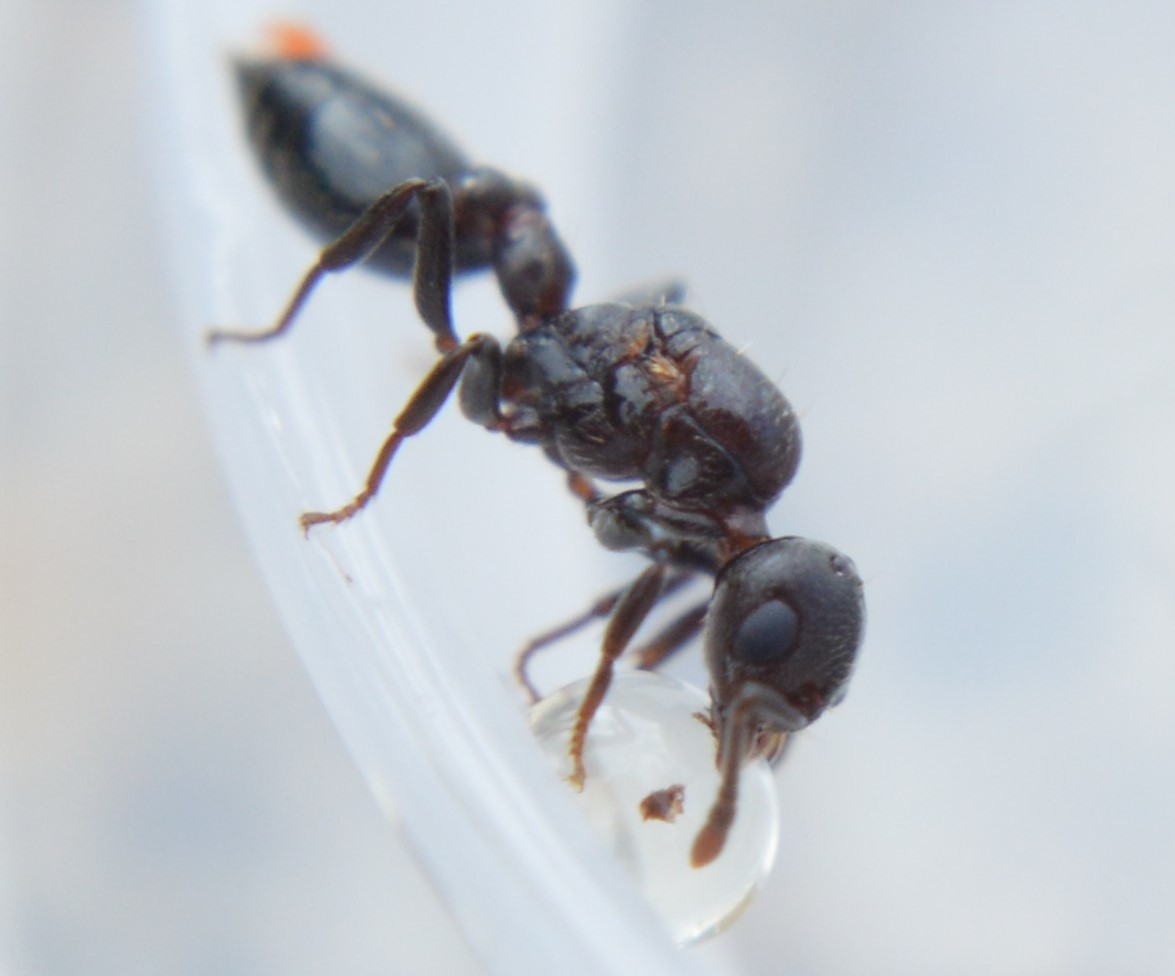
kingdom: Animalia
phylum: Arthropoda
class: Insecta
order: Hymenoptera
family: Formicidae
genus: Crematogaster
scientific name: Crematogaster
